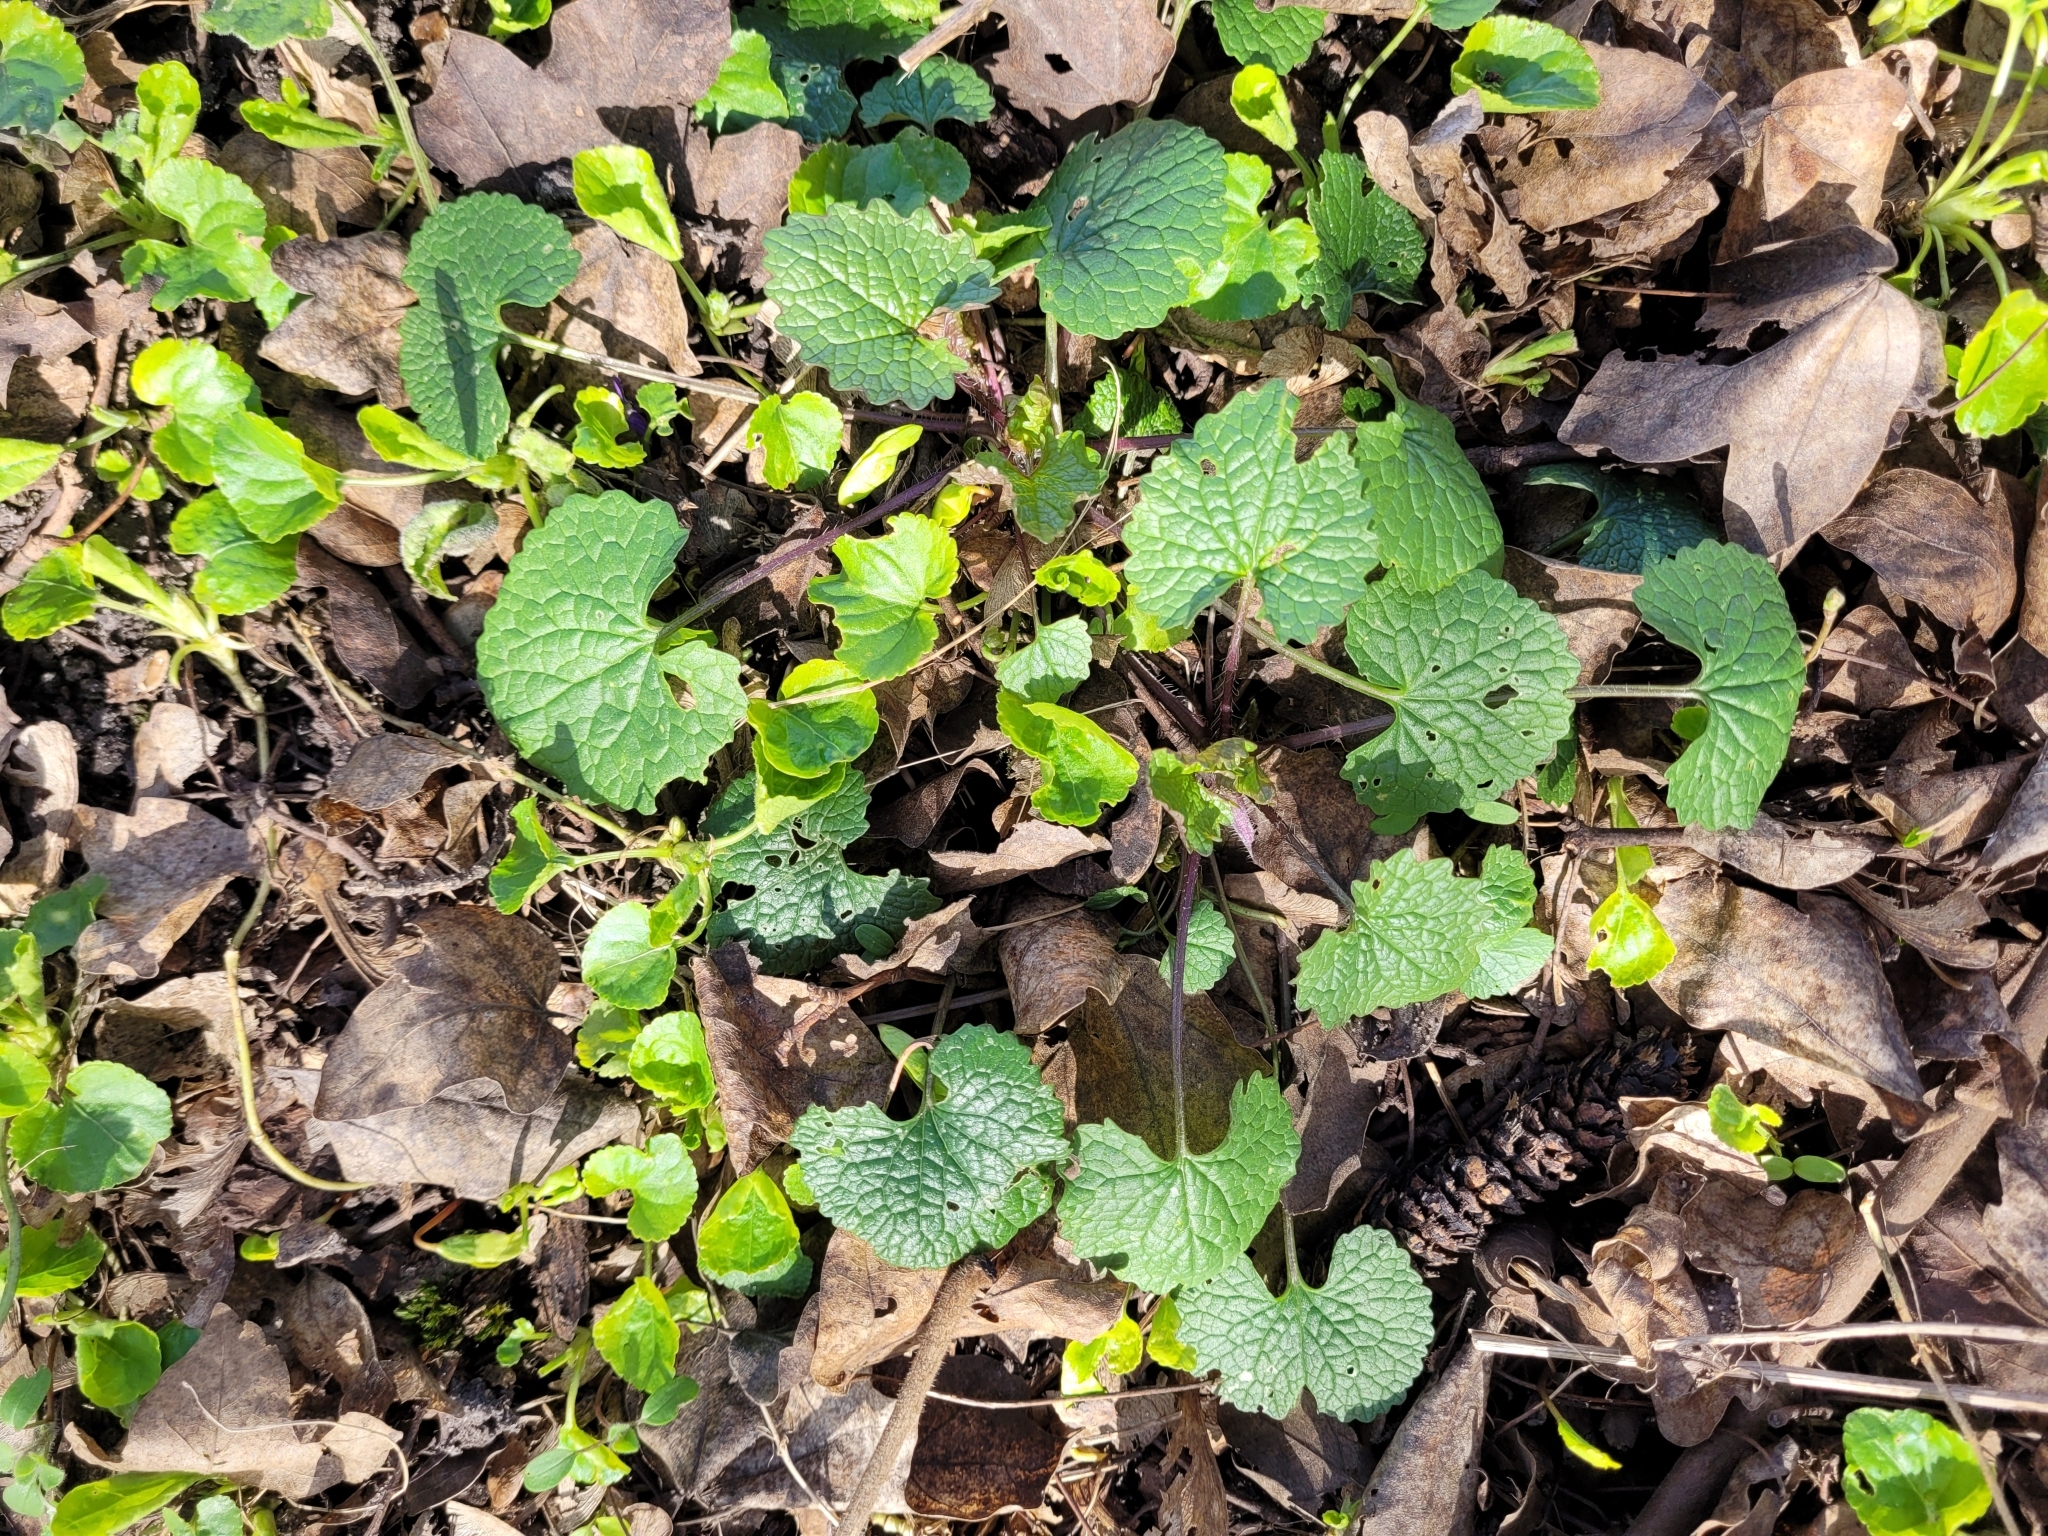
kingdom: Plantae
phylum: Tracheophyta
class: Magnoliopsida
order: Brassicales
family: Brassicaceae
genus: Alliaria
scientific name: Alliaria petiolata
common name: Garlic mustard
